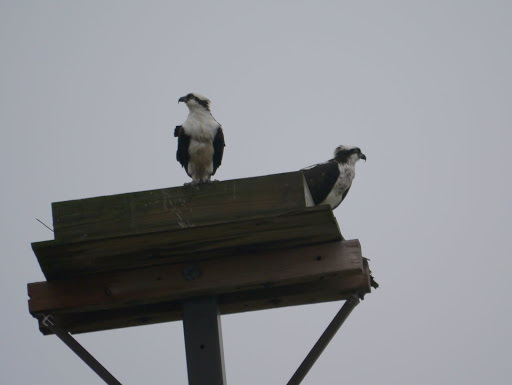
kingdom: Animalia
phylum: Chordata
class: Aves
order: Accipitriformes
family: Pandionidae
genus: Pandion
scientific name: Pandion haliaetus
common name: Osprey
